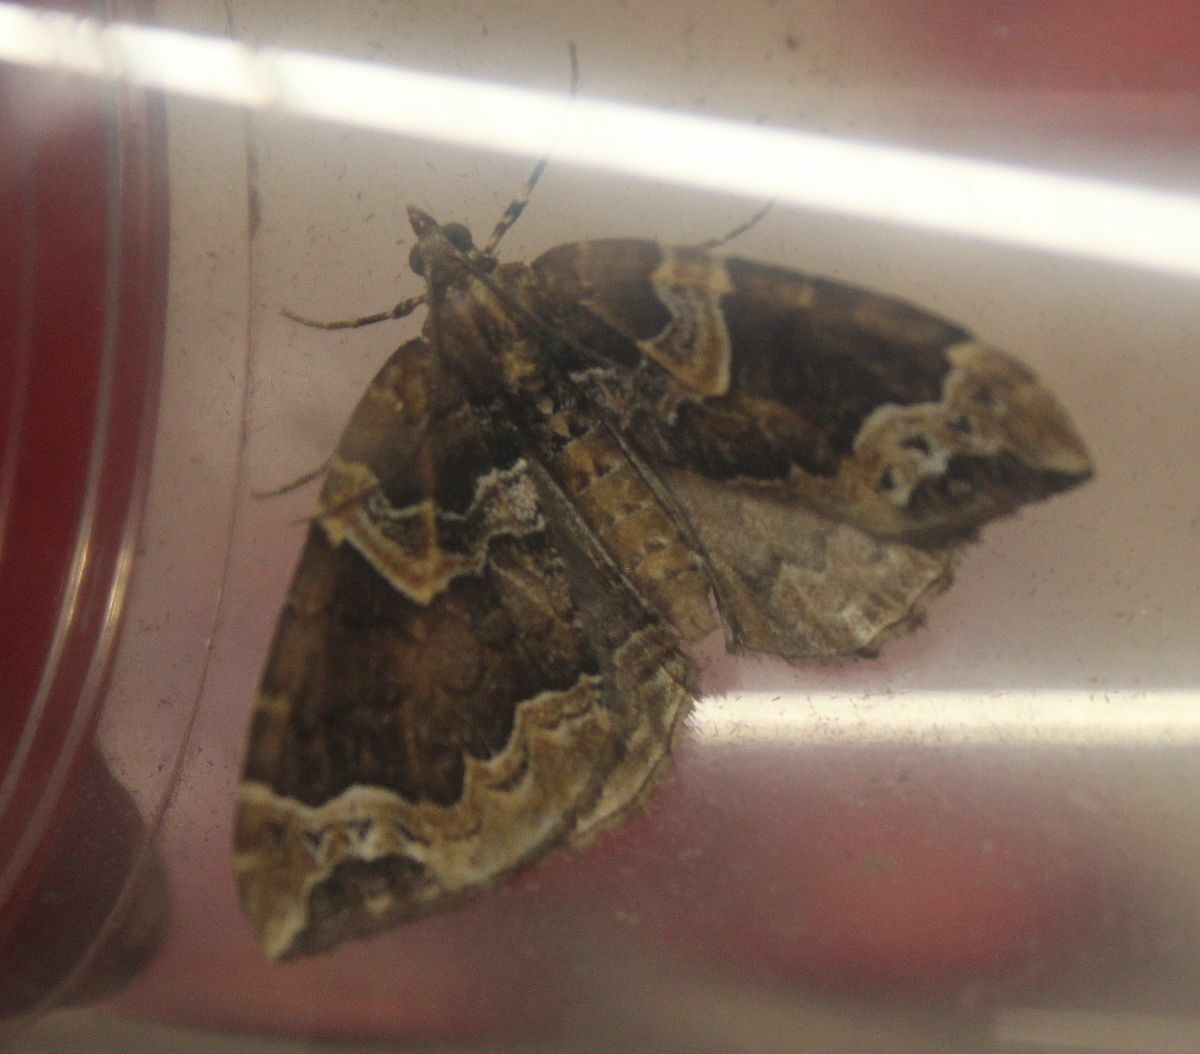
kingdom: Animalia
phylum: Arthropoda
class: Insecta
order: Lepidoptera
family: Geometridae
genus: Eulithis
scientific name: Eulithis prunata
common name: Phoenix
